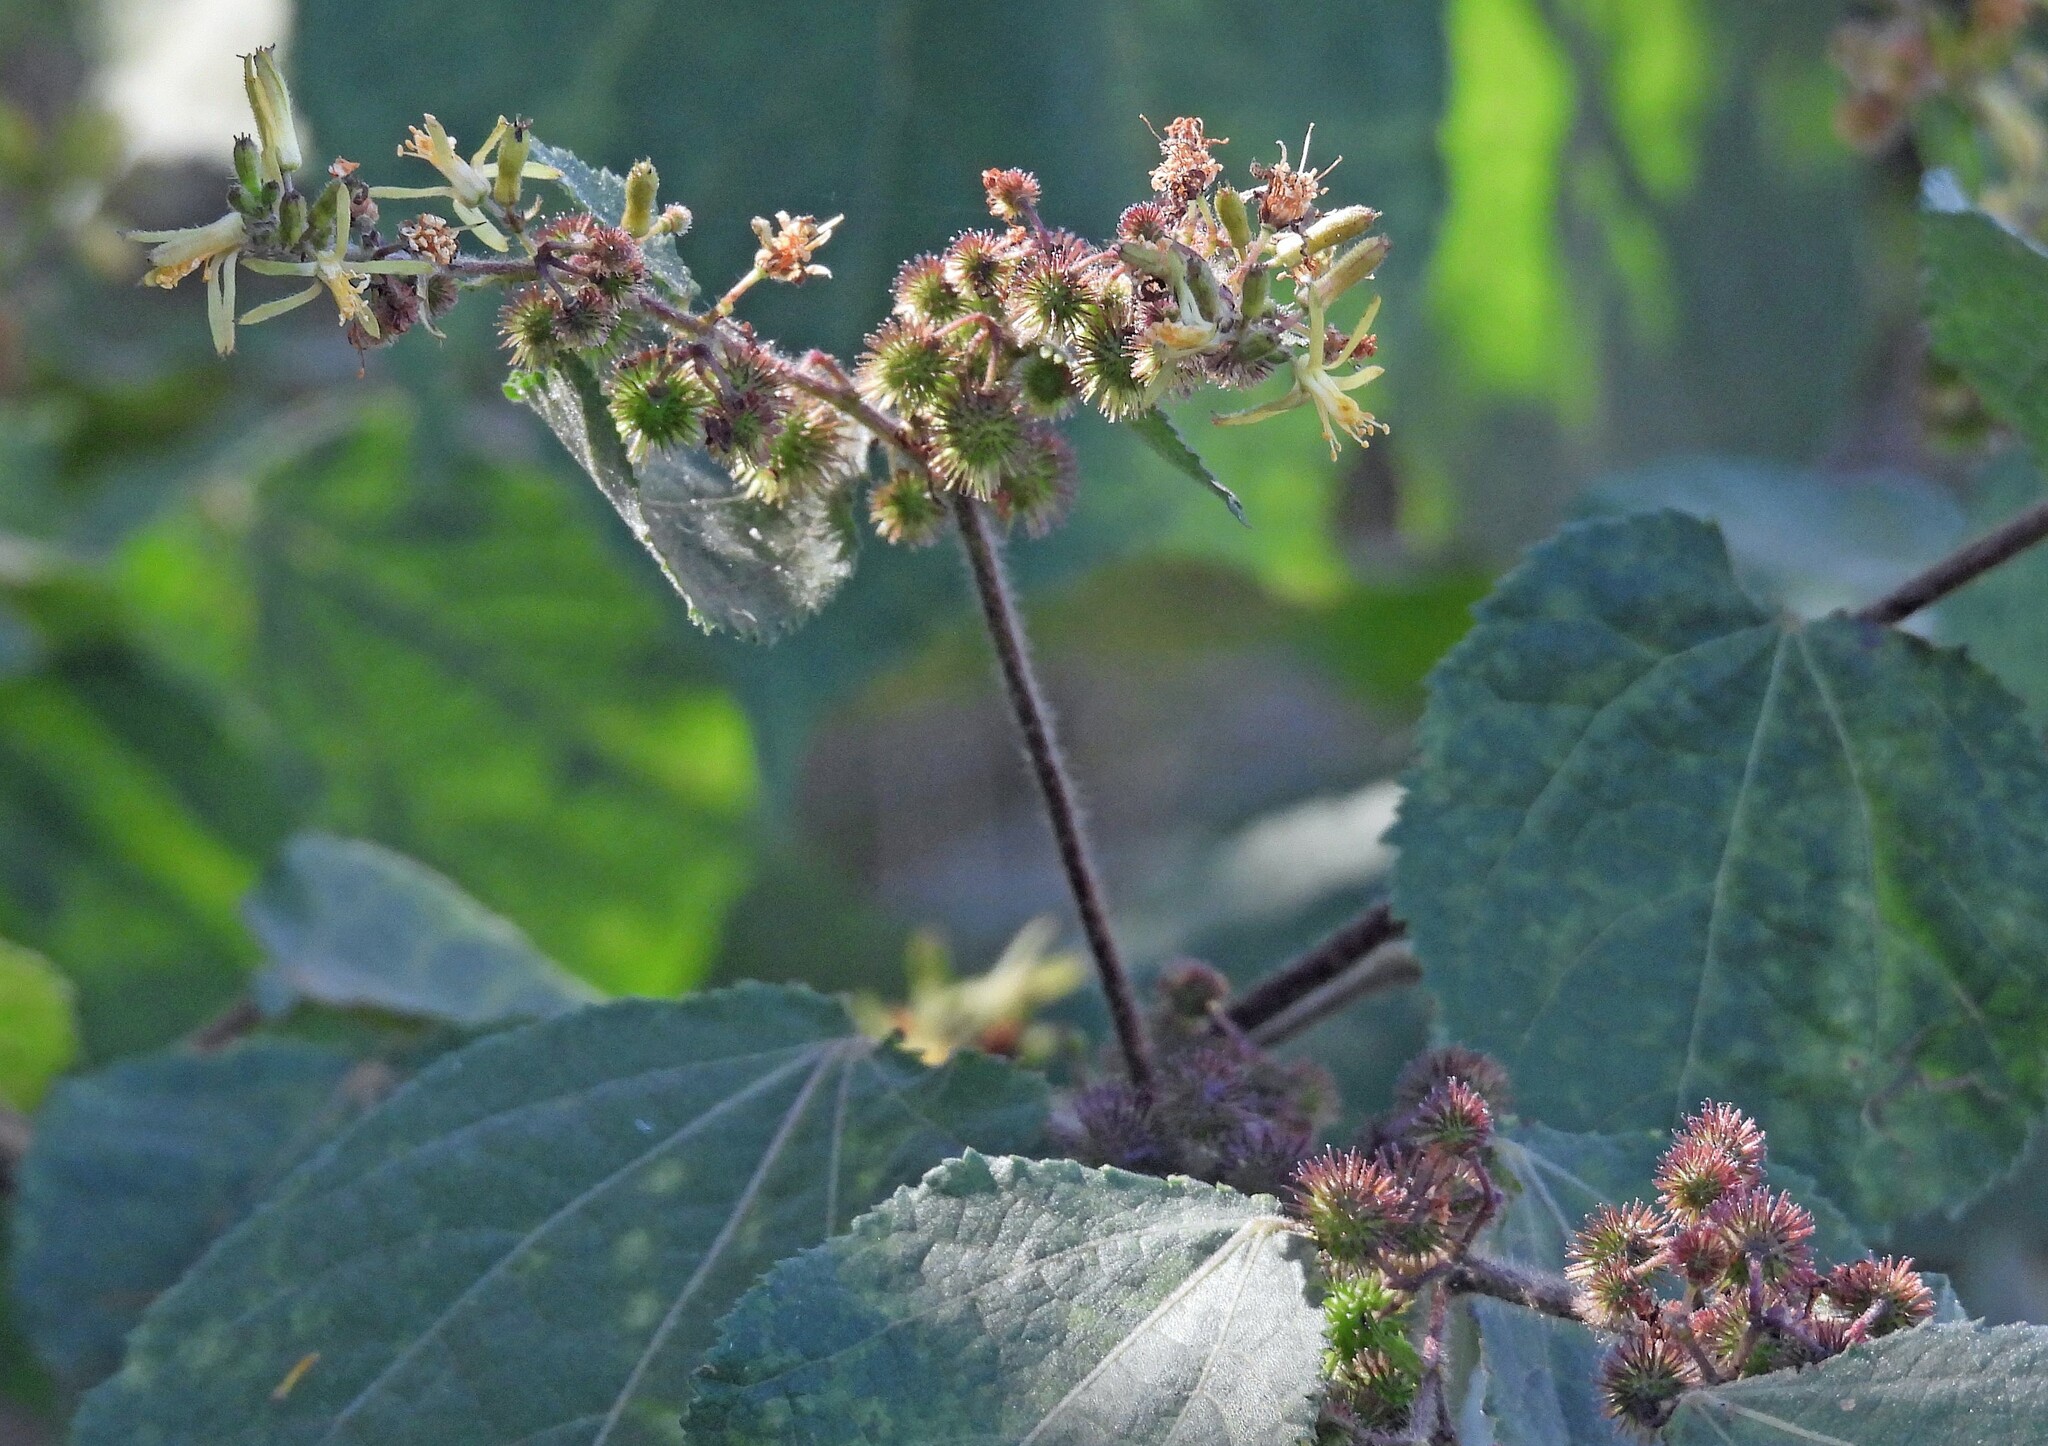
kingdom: Plantae
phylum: Tracheophyta
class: Magnoliopsida
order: Malvales
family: Malvaceae
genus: Triumfetta
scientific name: Triumfetta semitriloba
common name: Sacramento burbark
